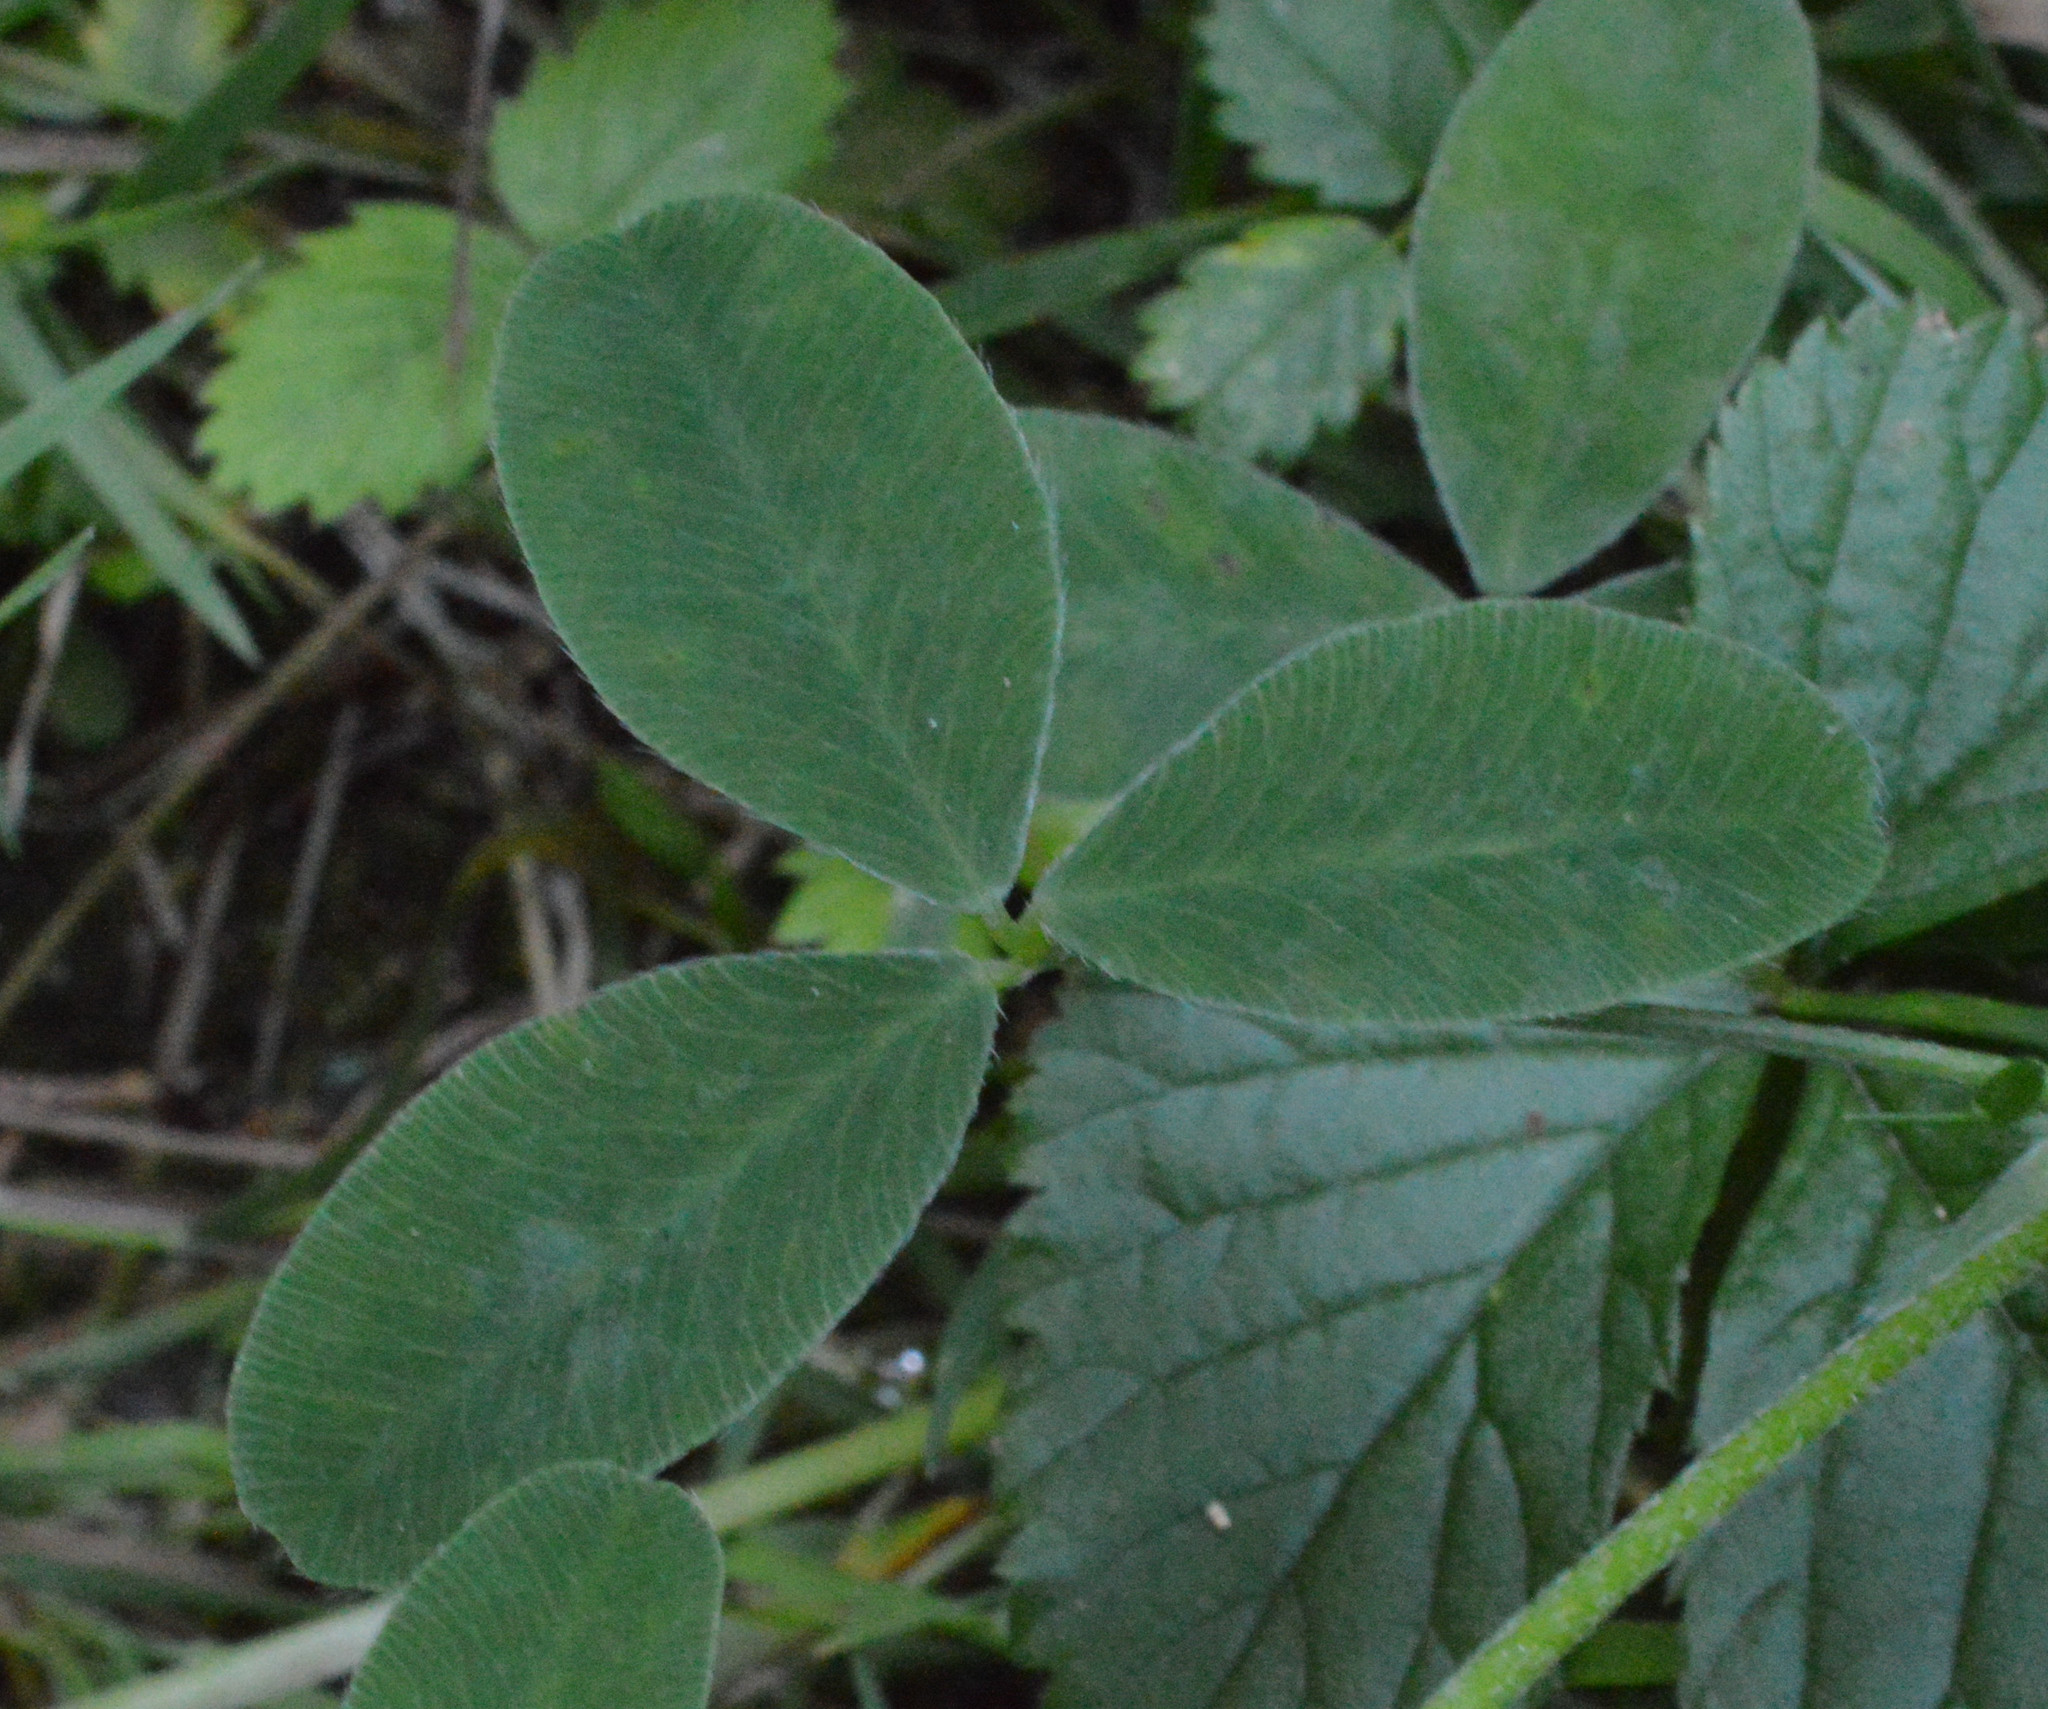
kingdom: Plantae
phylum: Tracheophyta
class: Magnoliopsida
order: Fabales
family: Fabaceae
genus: Trifolium
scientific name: Trifolium medium
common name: Zigzag clover
